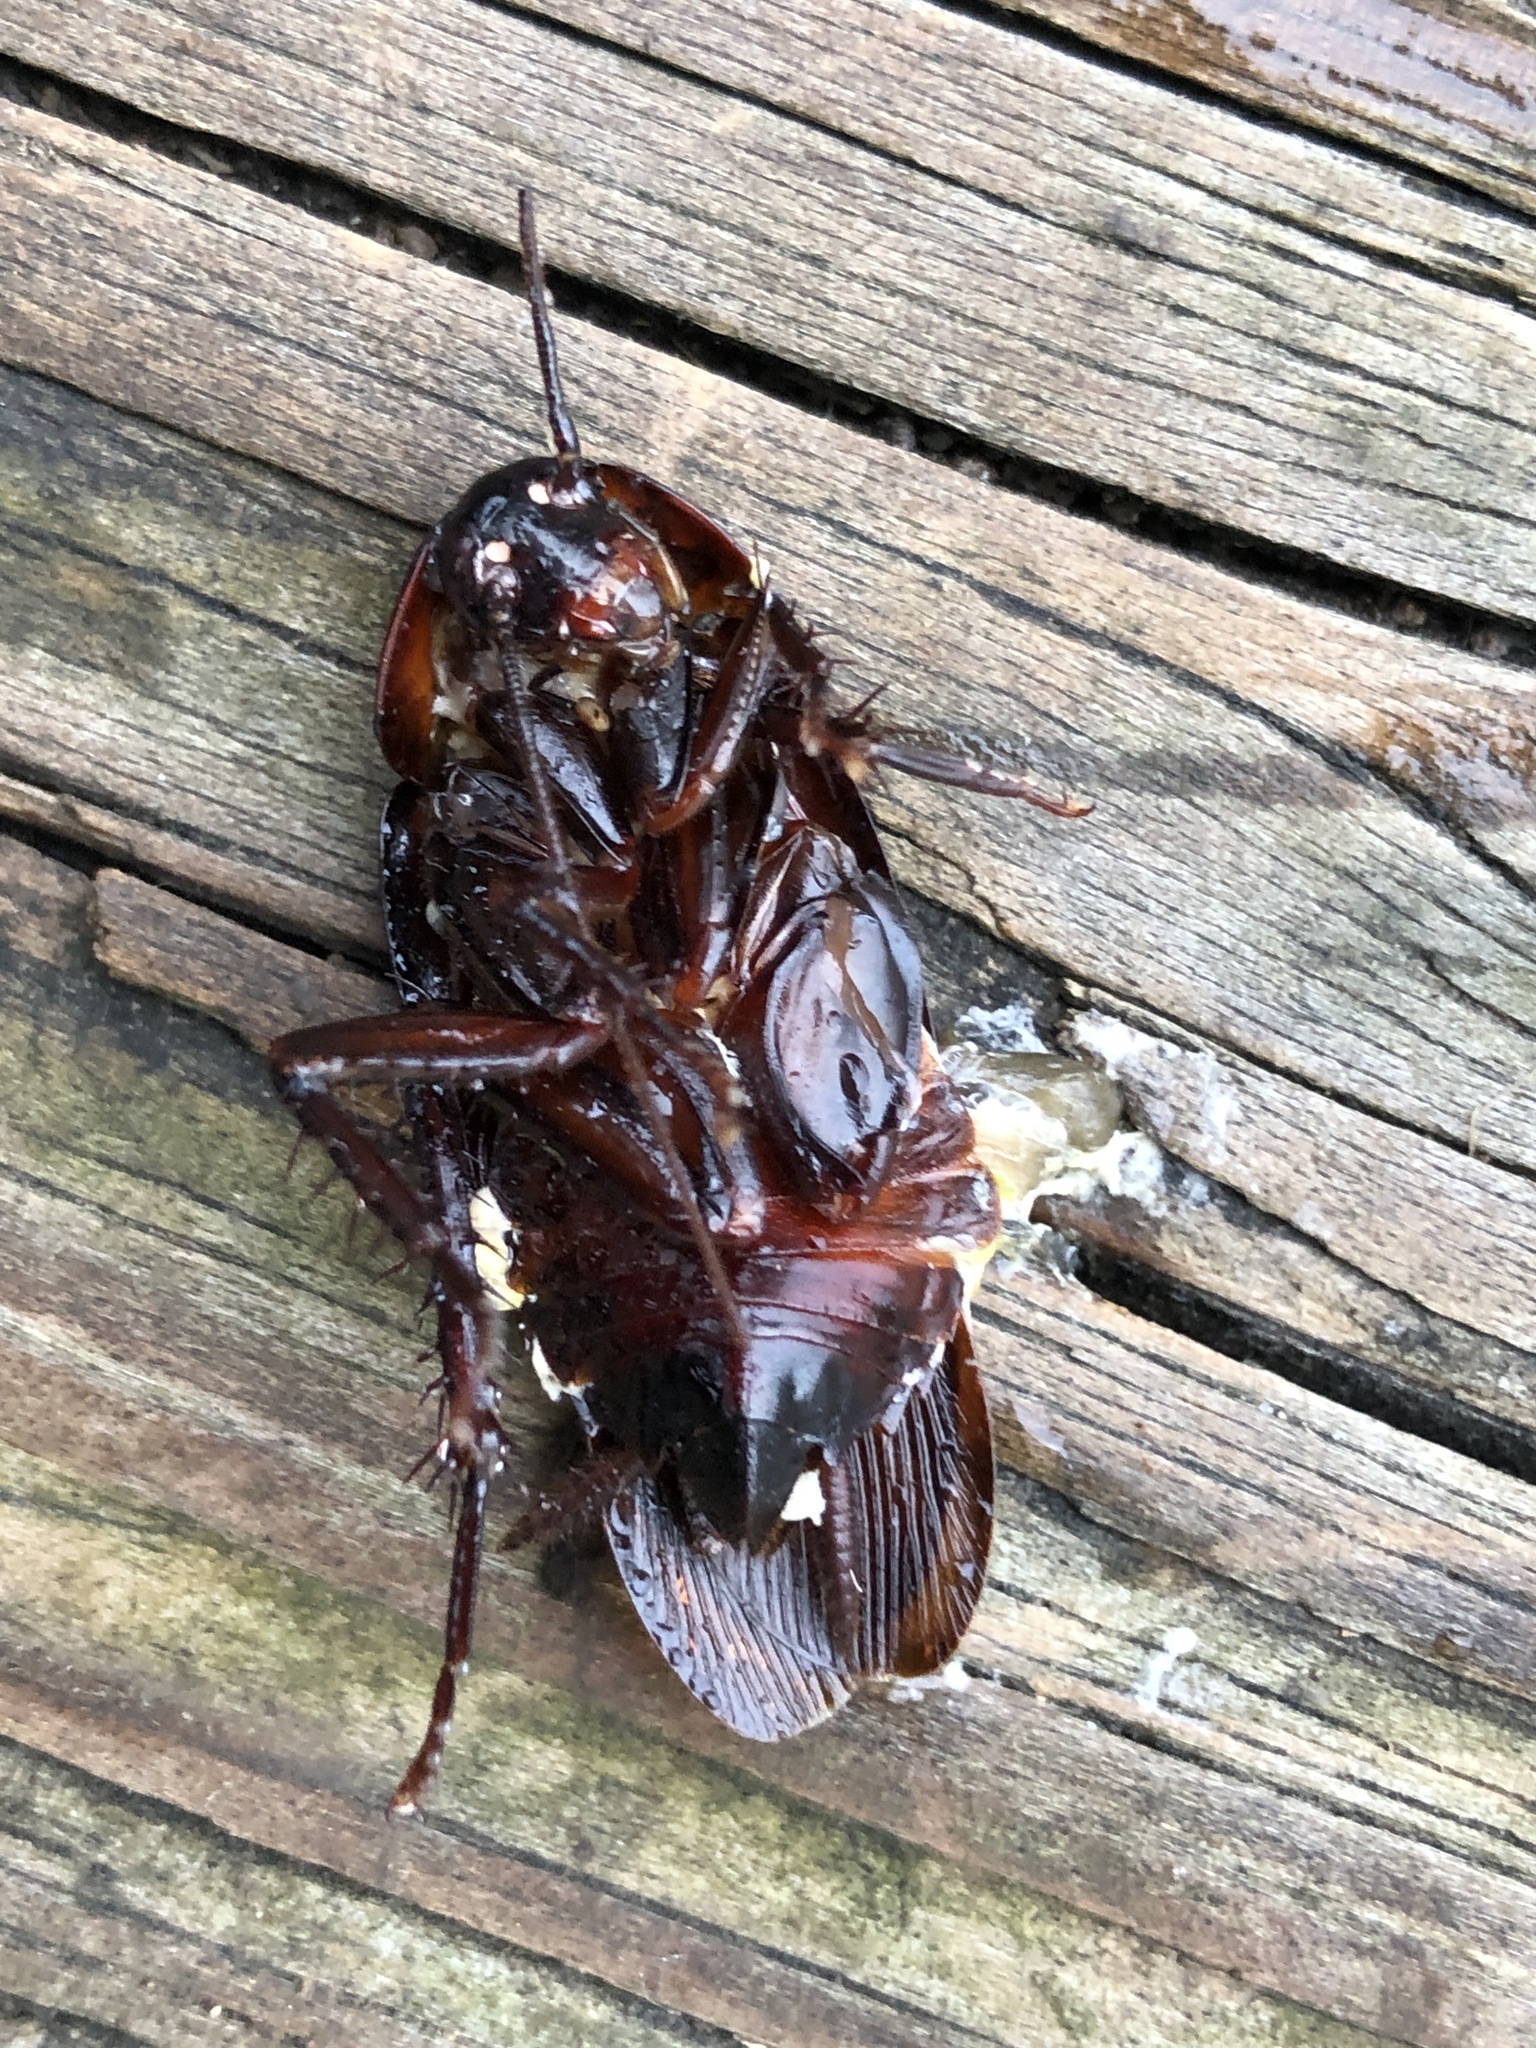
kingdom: Animalia
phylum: Arthropoda
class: Insecta
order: Blattodea
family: Blattidae
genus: Periplaneta
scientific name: Periplaneta fuliginosa
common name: Smokeybrown cockroad
